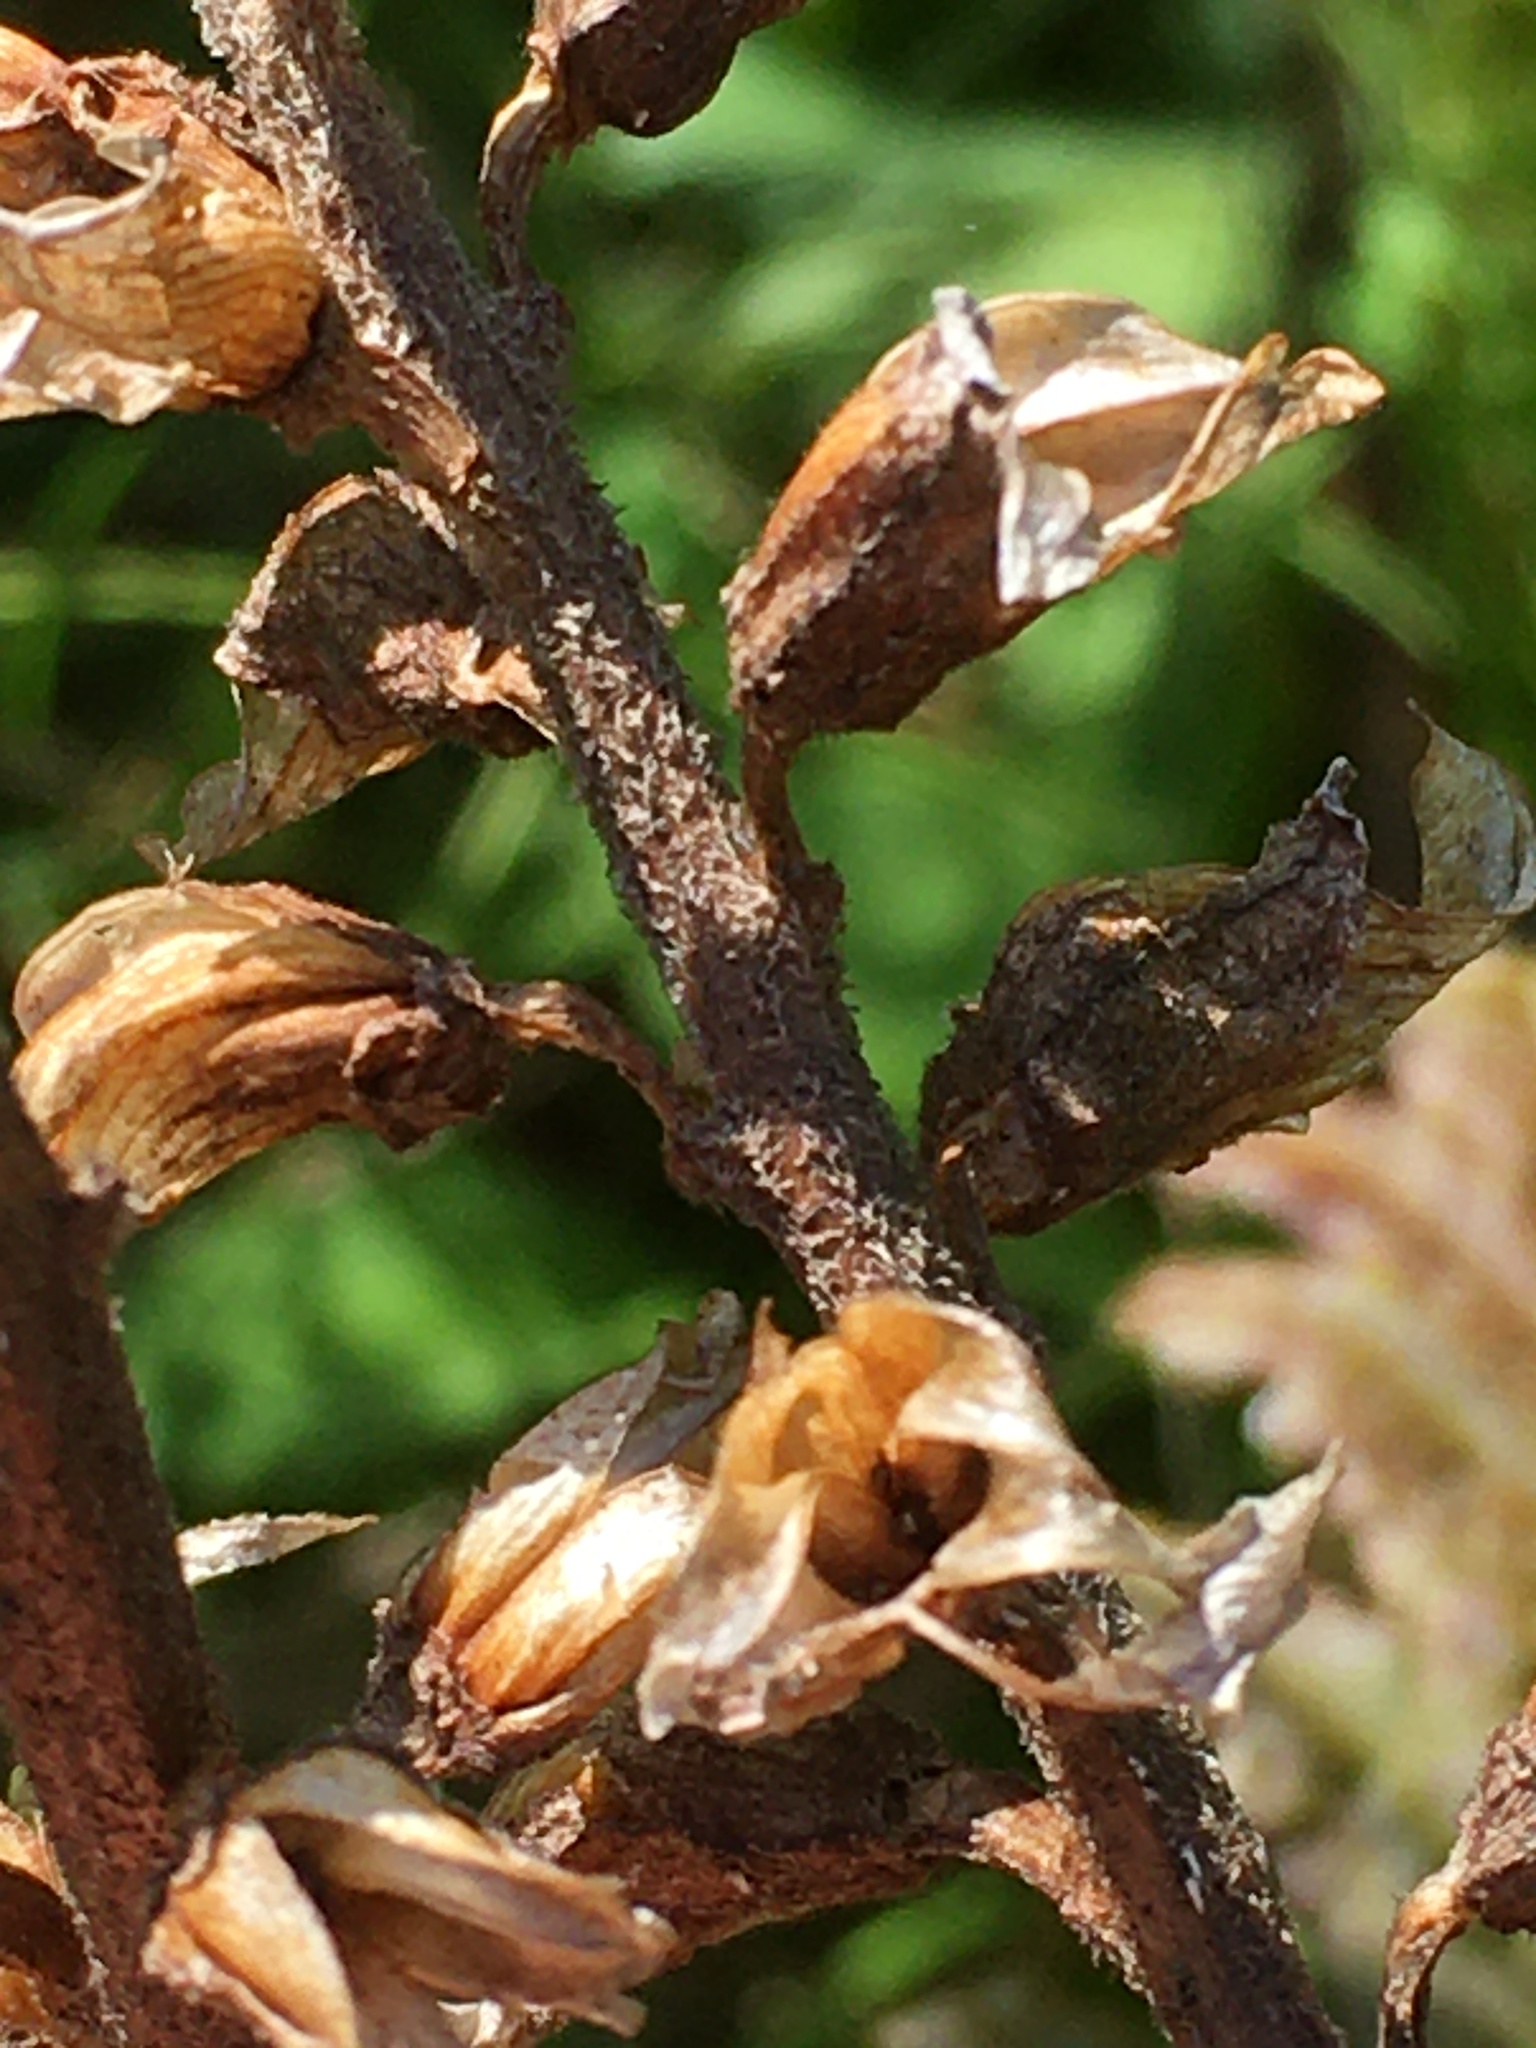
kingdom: Plantae
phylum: Tracheophyta
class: Magnoliopsida
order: Lamiales
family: Orobanchaceae
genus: Pedicularis
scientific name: Pedicularis canadensis
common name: Early lousewort
